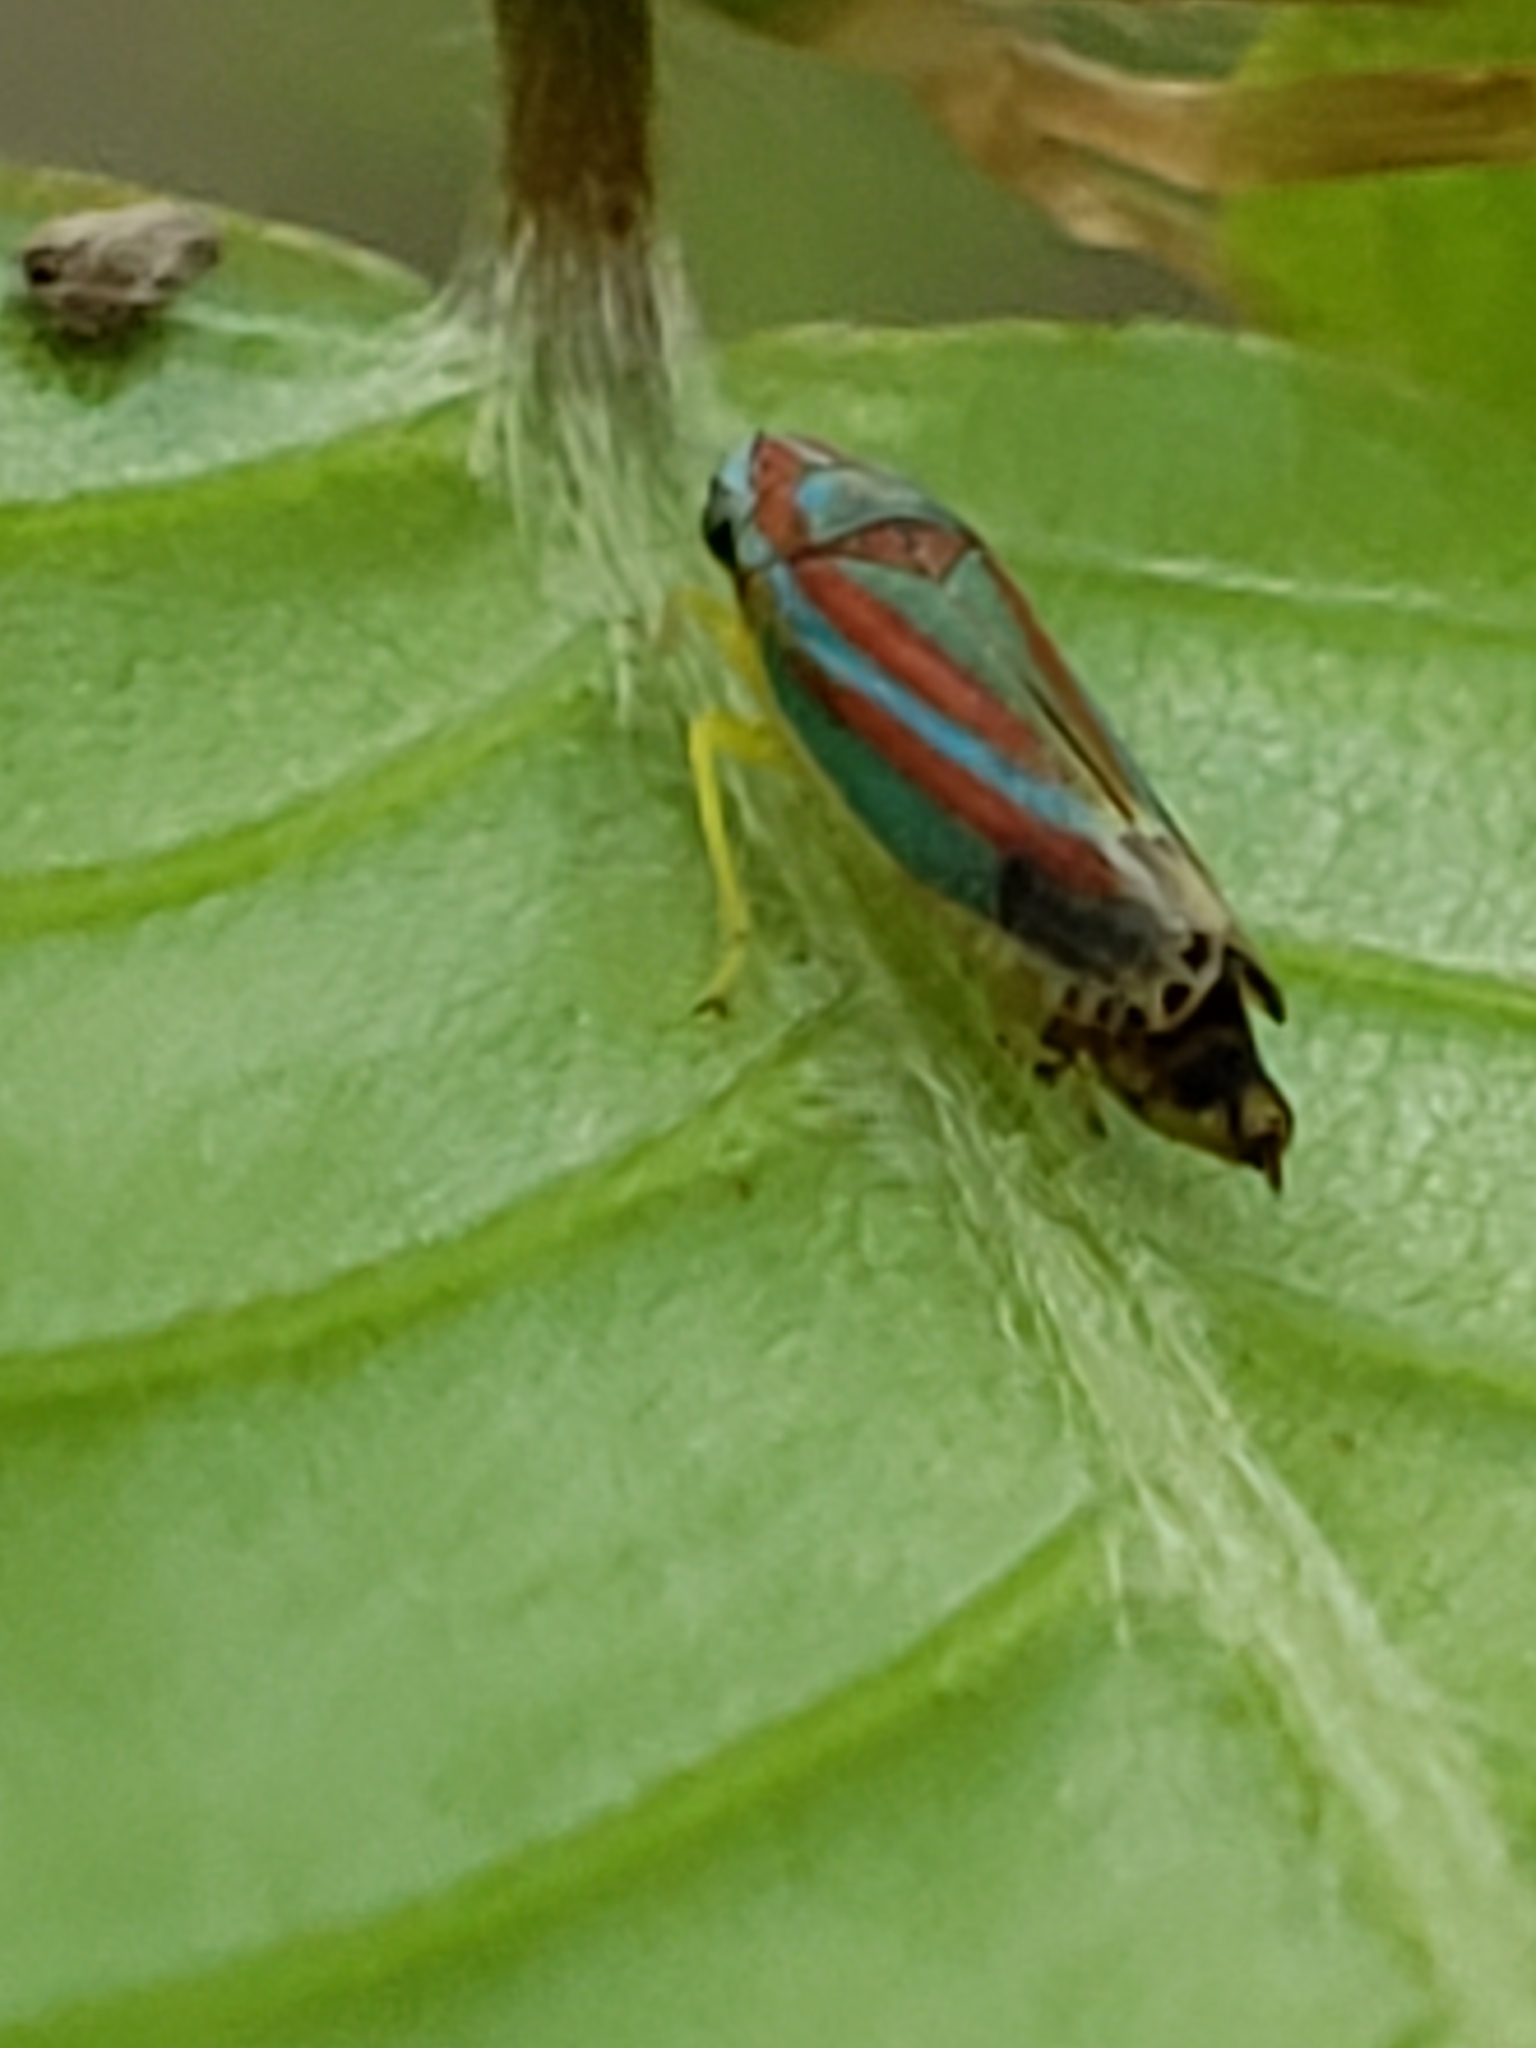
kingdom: Animalia
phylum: Arthropoda
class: Insecta
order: Hemiptera
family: Cicadellidae
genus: Graphocephala
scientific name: Graphocephala versuta
